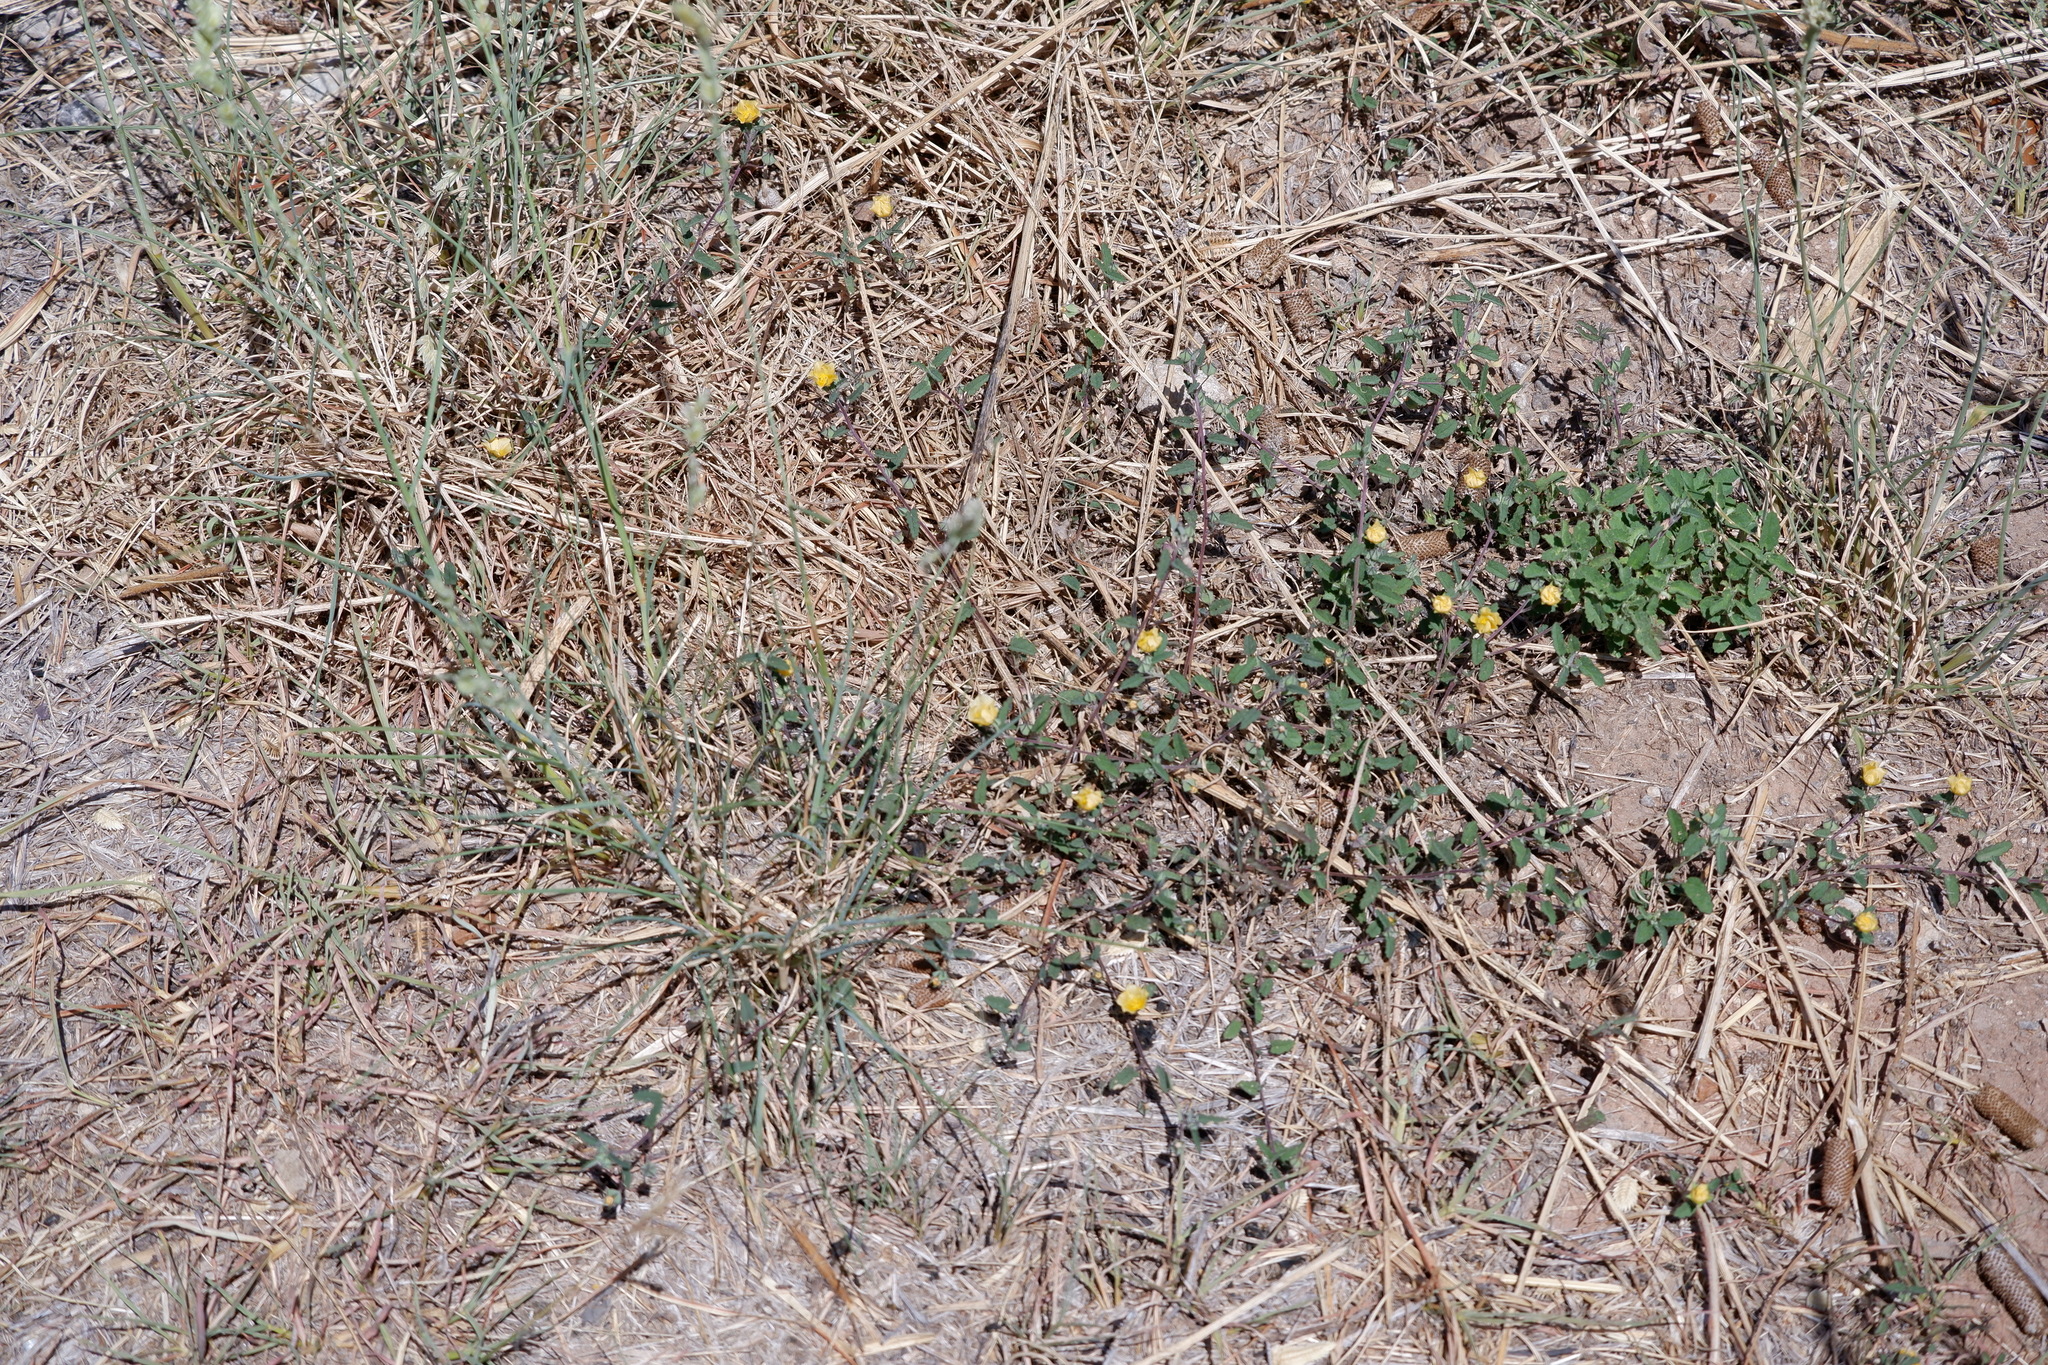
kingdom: Plantae
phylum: Tracheophyta
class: Magnoliopsida
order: Malvales
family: Malvaceae
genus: Sida
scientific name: Sida abutilifolia
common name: Spreading fanpetals
